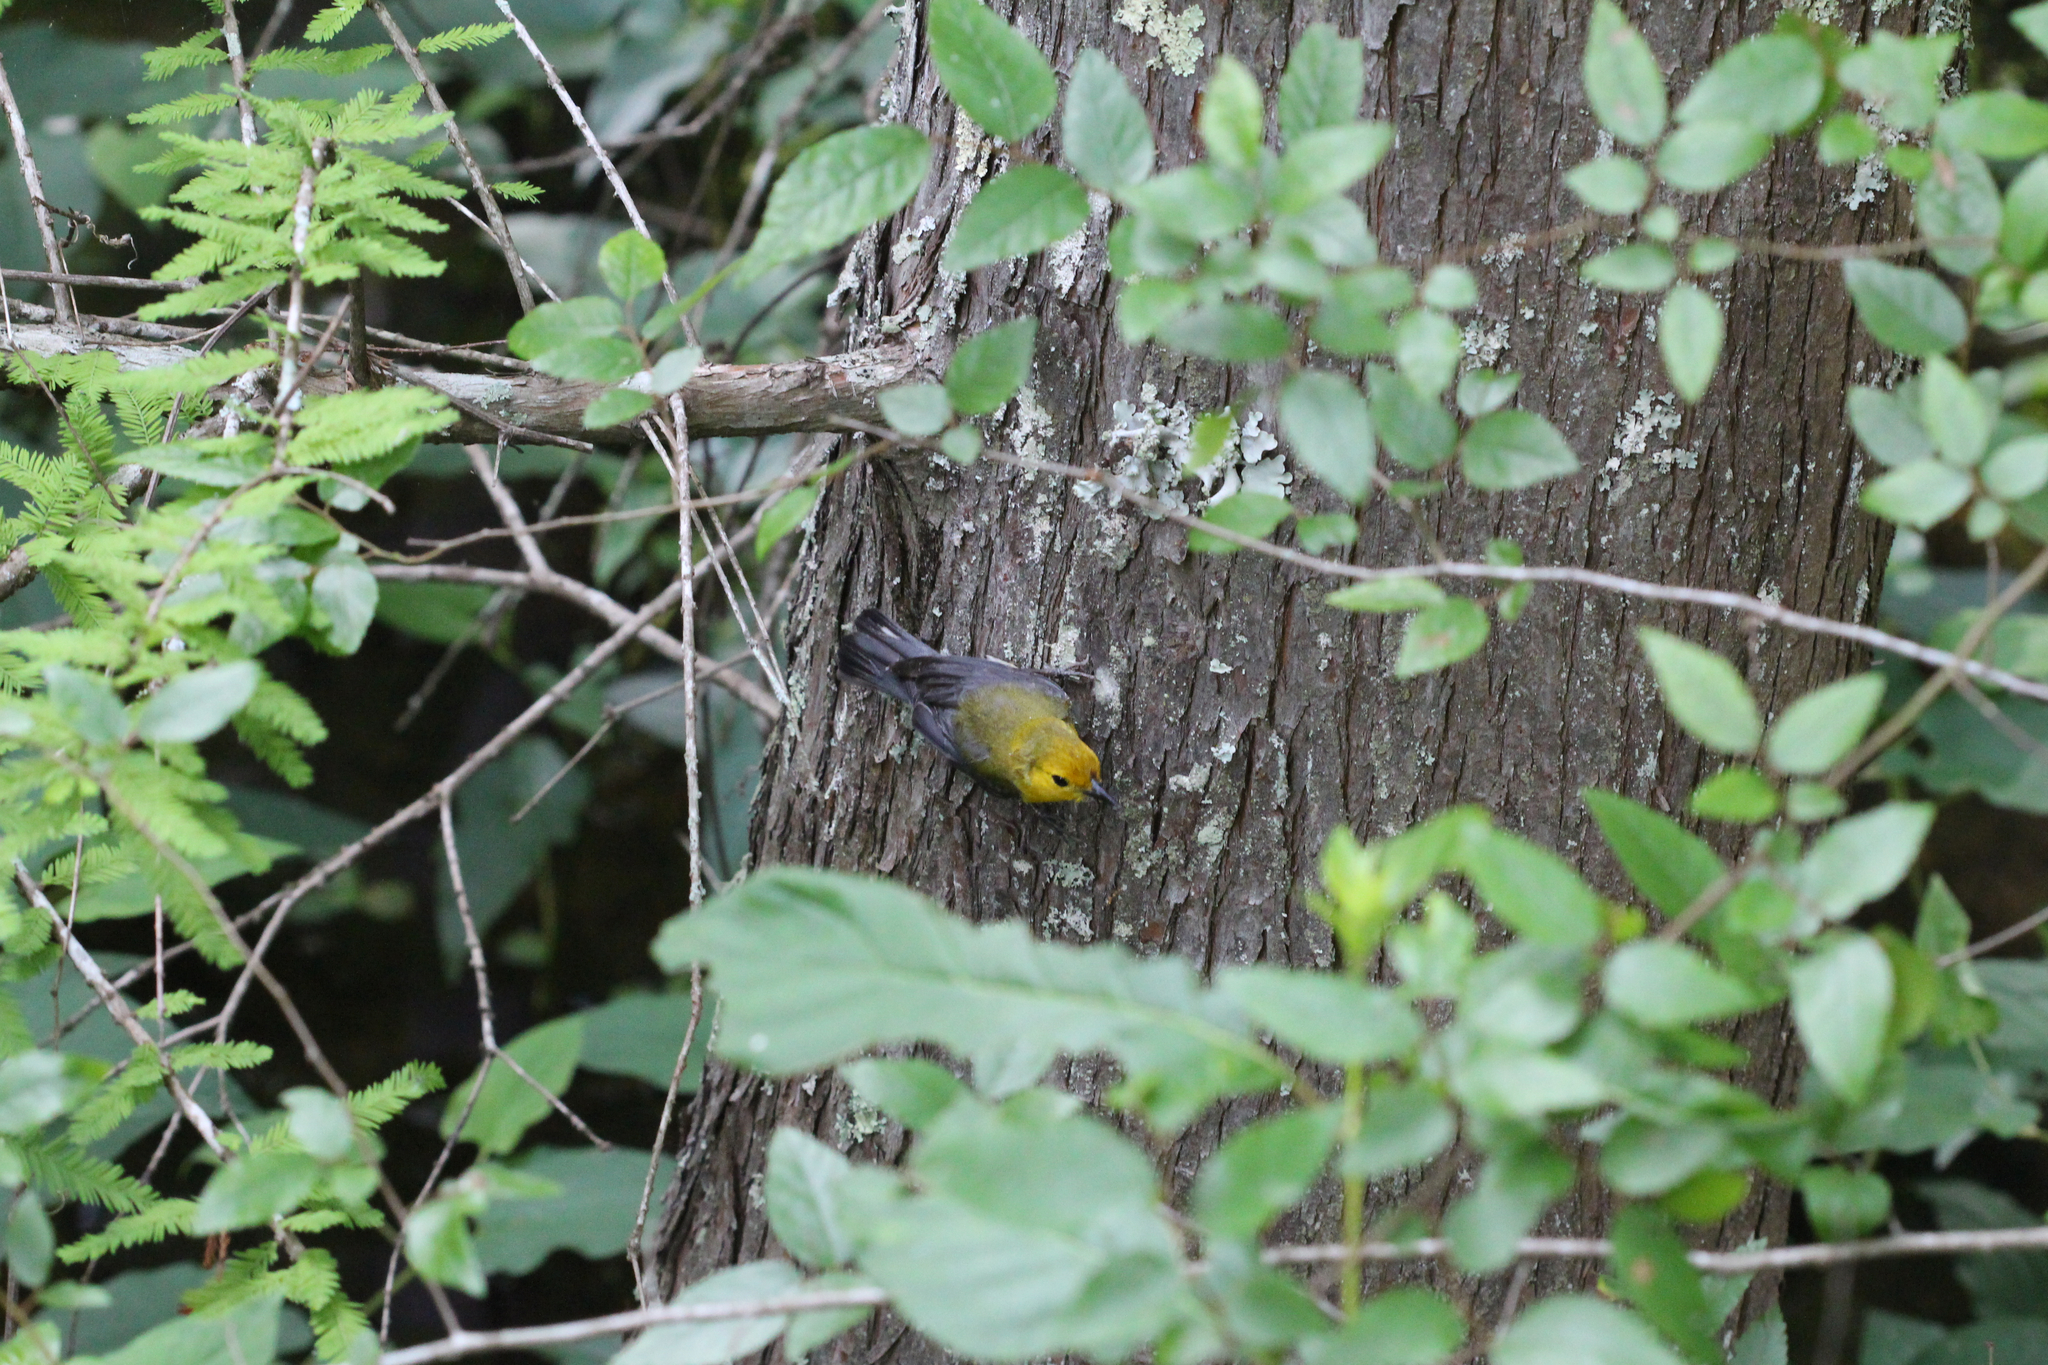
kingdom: Animalia
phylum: Chordata
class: Aves
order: Passeriformes
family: Parulidae
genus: Protonotaria
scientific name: Protonotaria citrea
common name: Prothonotary warbler
